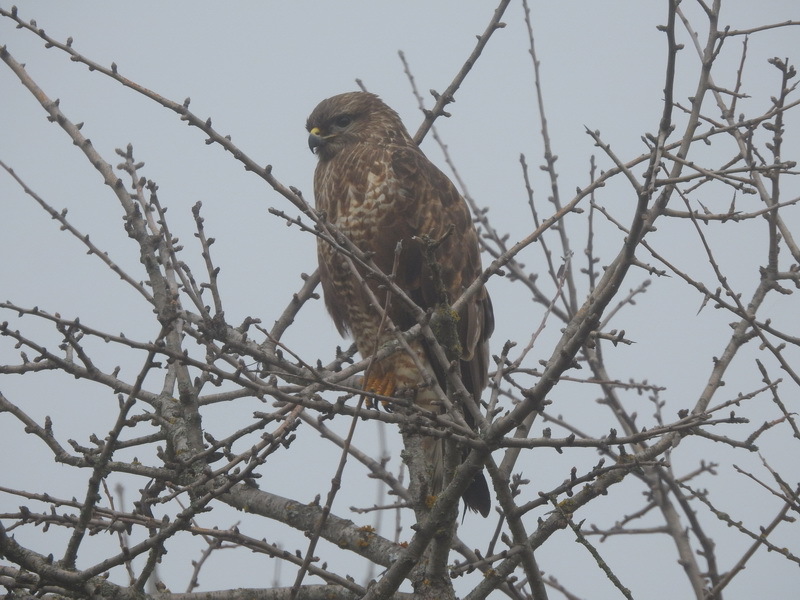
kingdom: Animalia
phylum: Chordata
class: Aves
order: Accipitriformes
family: Accipitridae
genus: Buteo
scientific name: Buteo buteo
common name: Common buzzard
